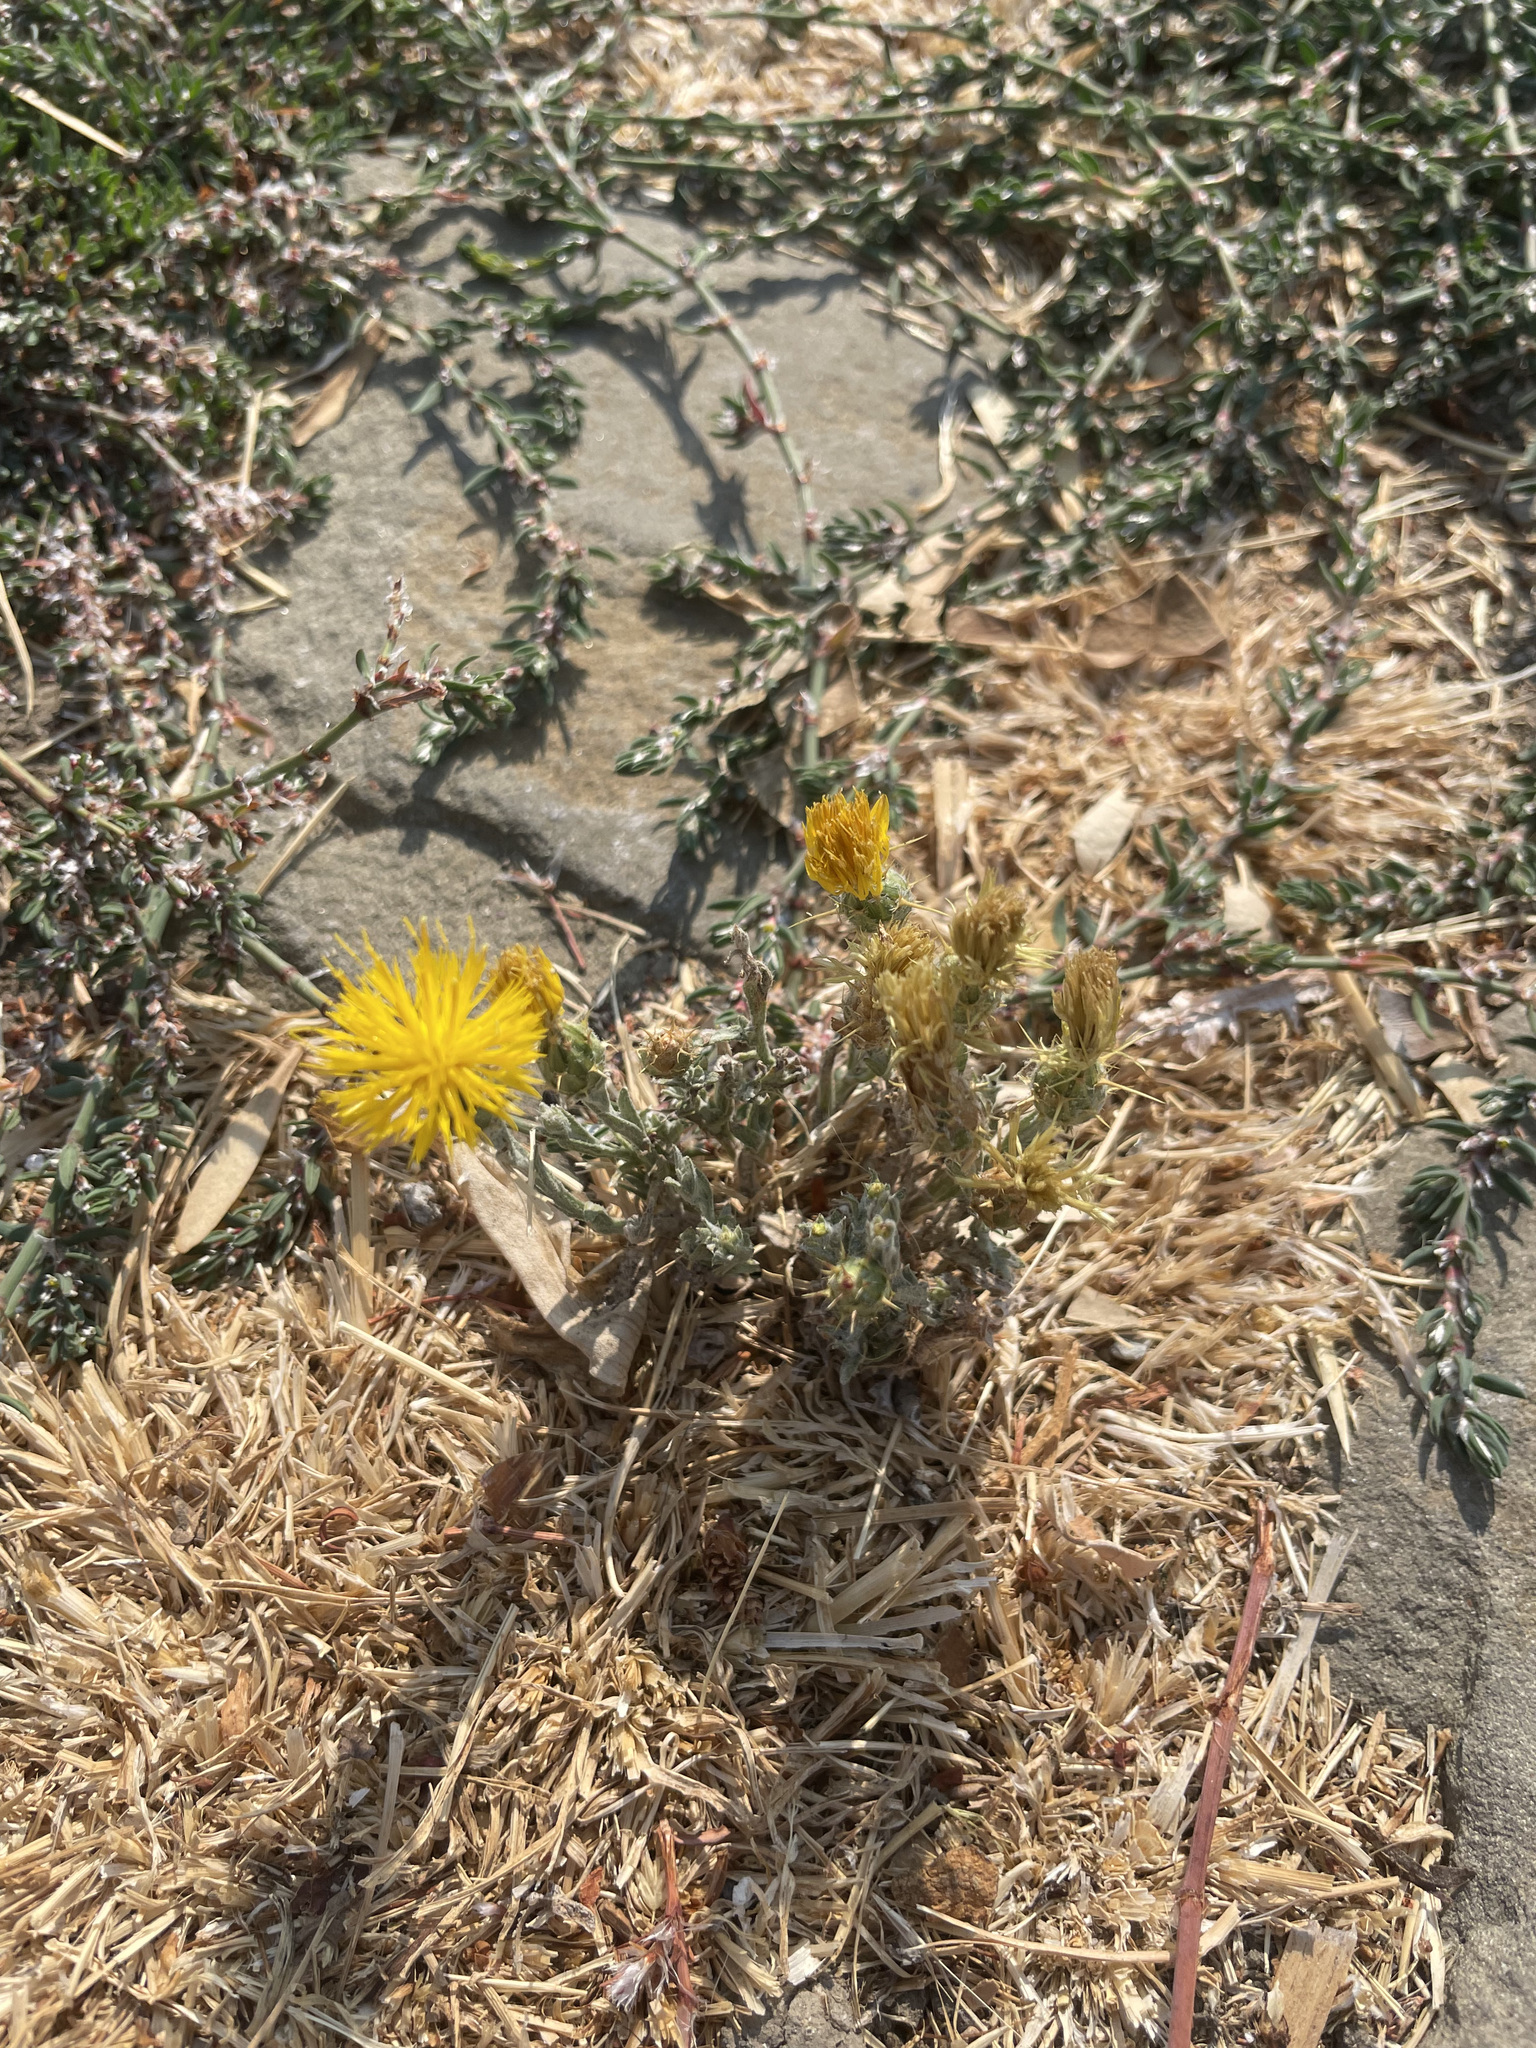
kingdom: Plantae
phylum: Tracheophyta
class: Magnoliopsida
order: Asterales
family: Asteraceae
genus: Centaurea
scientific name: Centaurea solstitialis
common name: Yellow star-thistle
